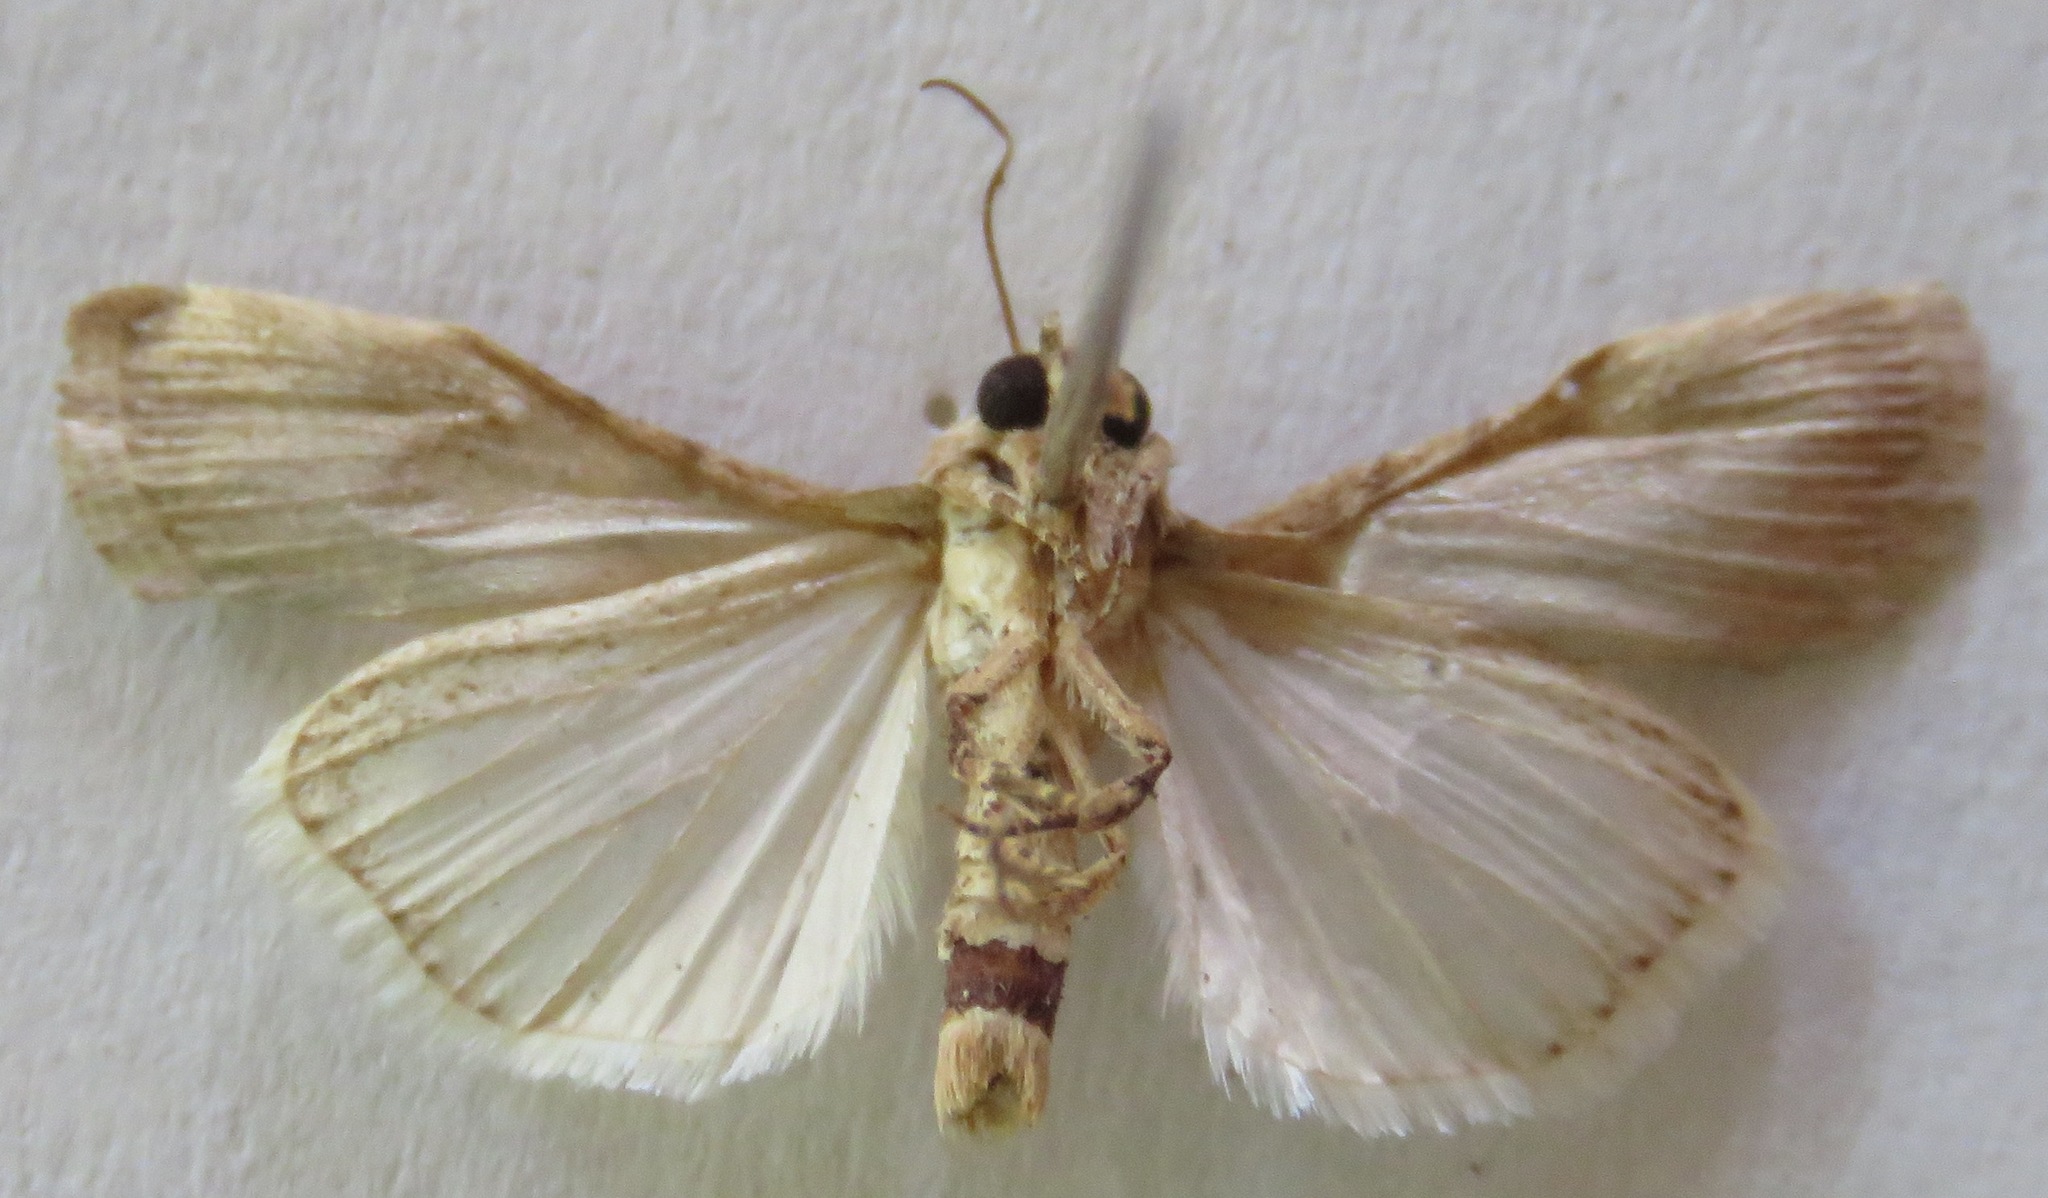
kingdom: Animalia
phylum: Arthropoda
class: Insecta
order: Lepidoptera
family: Noctuidae
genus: Spodoptera
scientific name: Spodoptera exigua
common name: Beet armyworm
